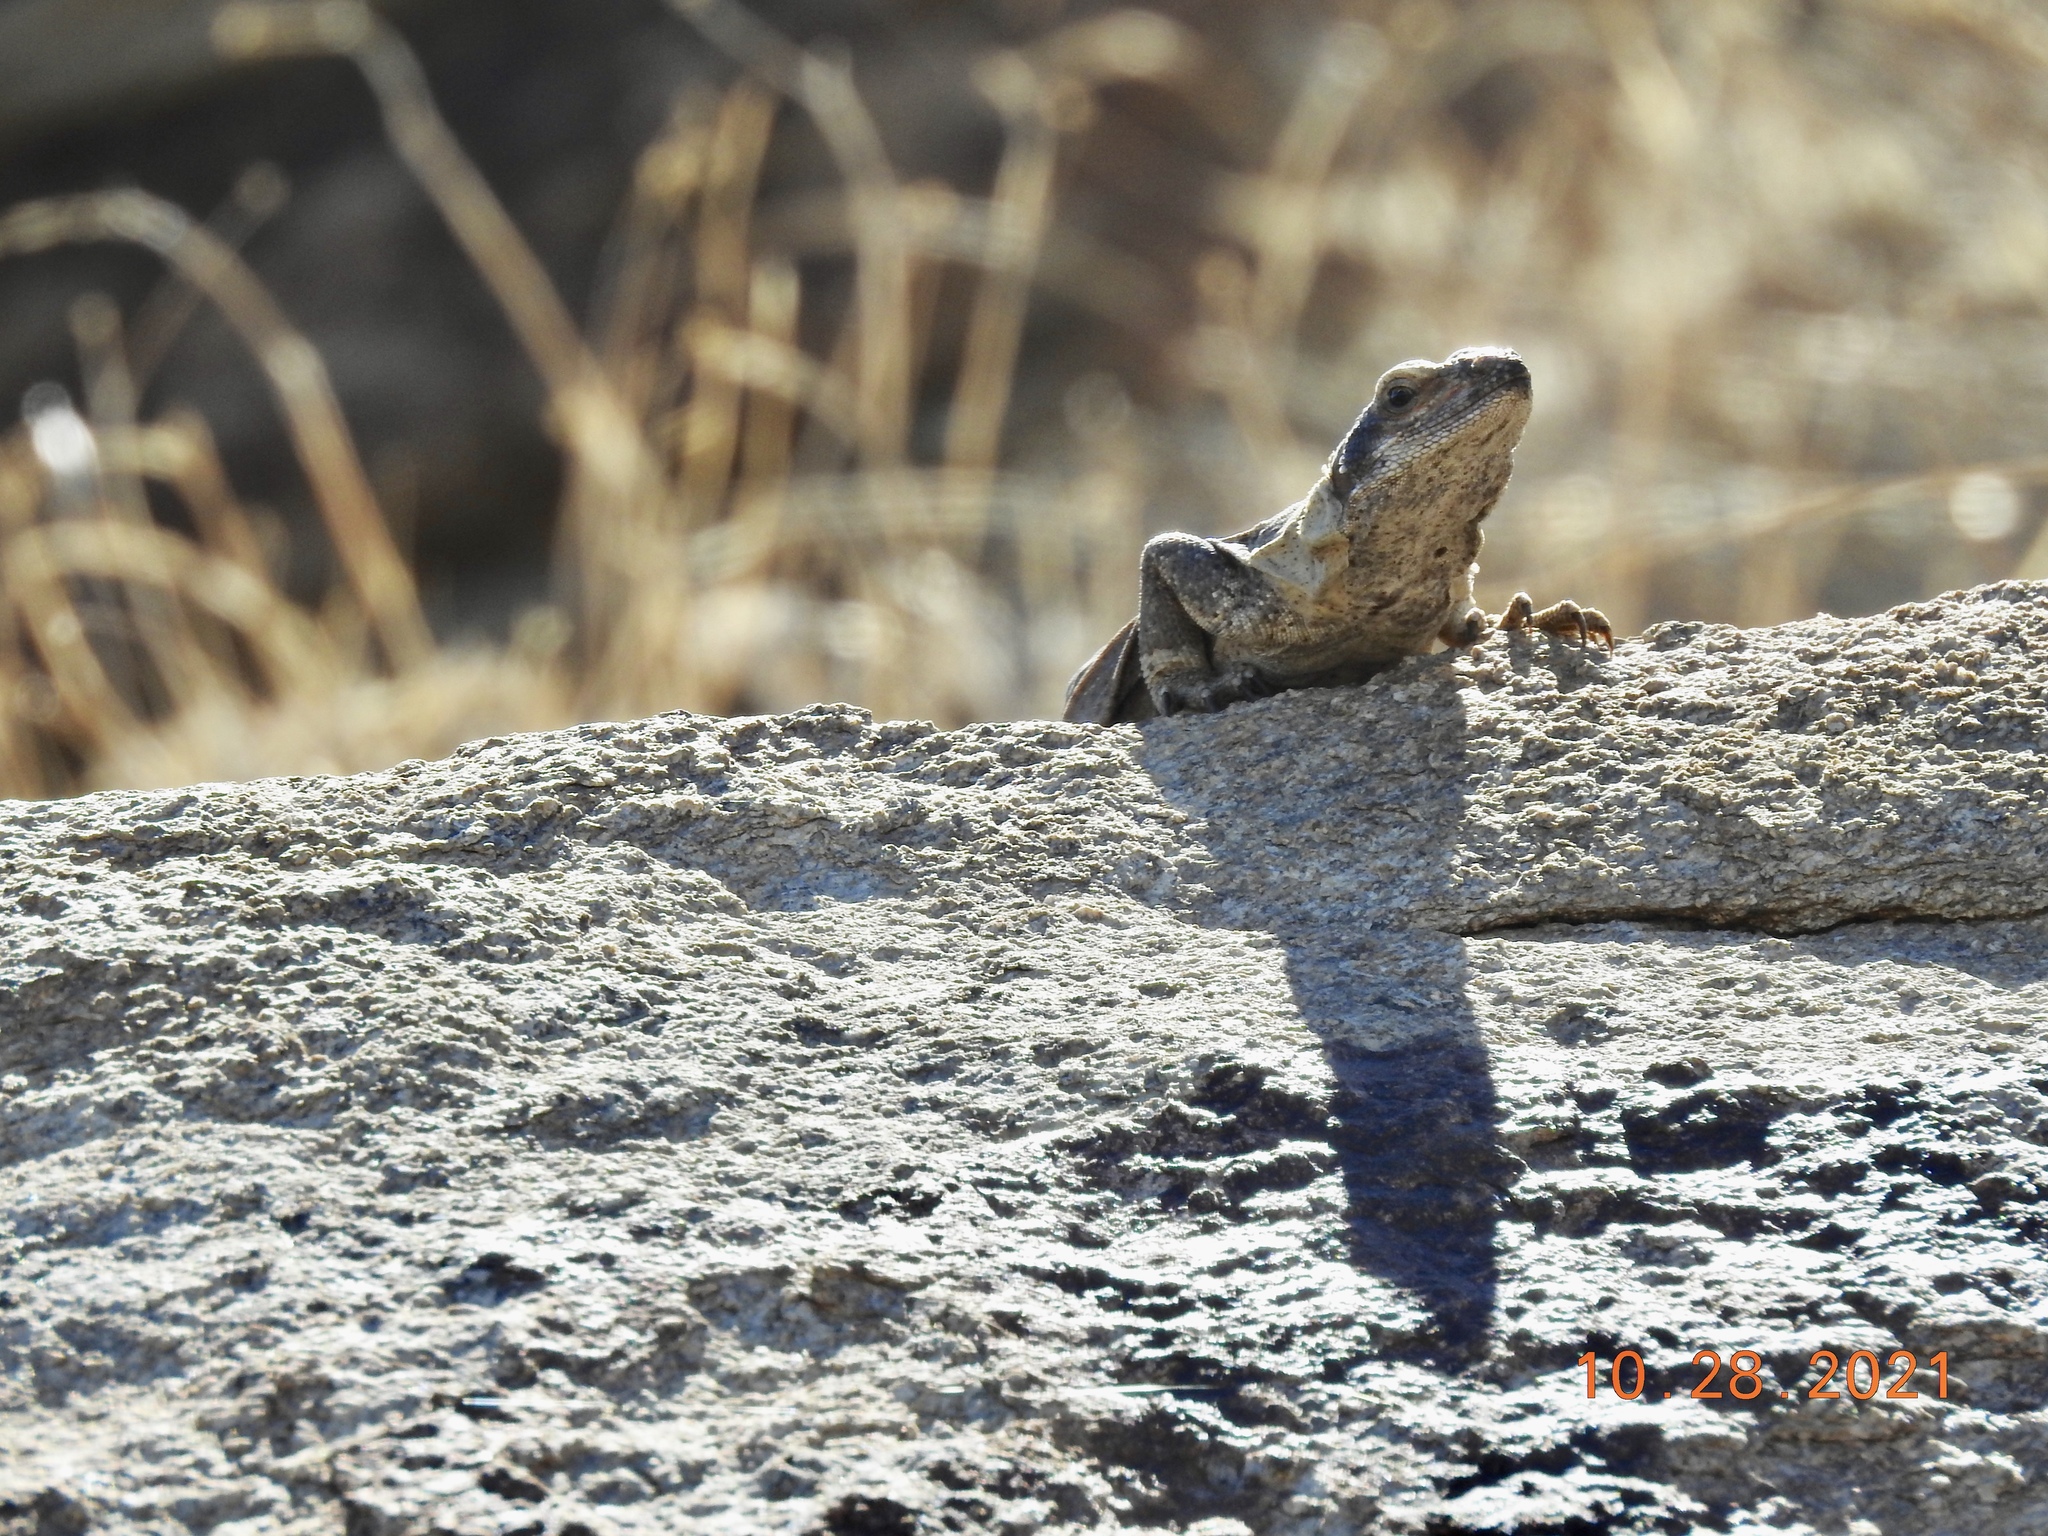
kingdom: Animalia
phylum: Chordata
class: Squamata
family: Iguanidae
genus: Sauromalus
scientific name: Sauromalus ater
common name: Northern chuckwalla
